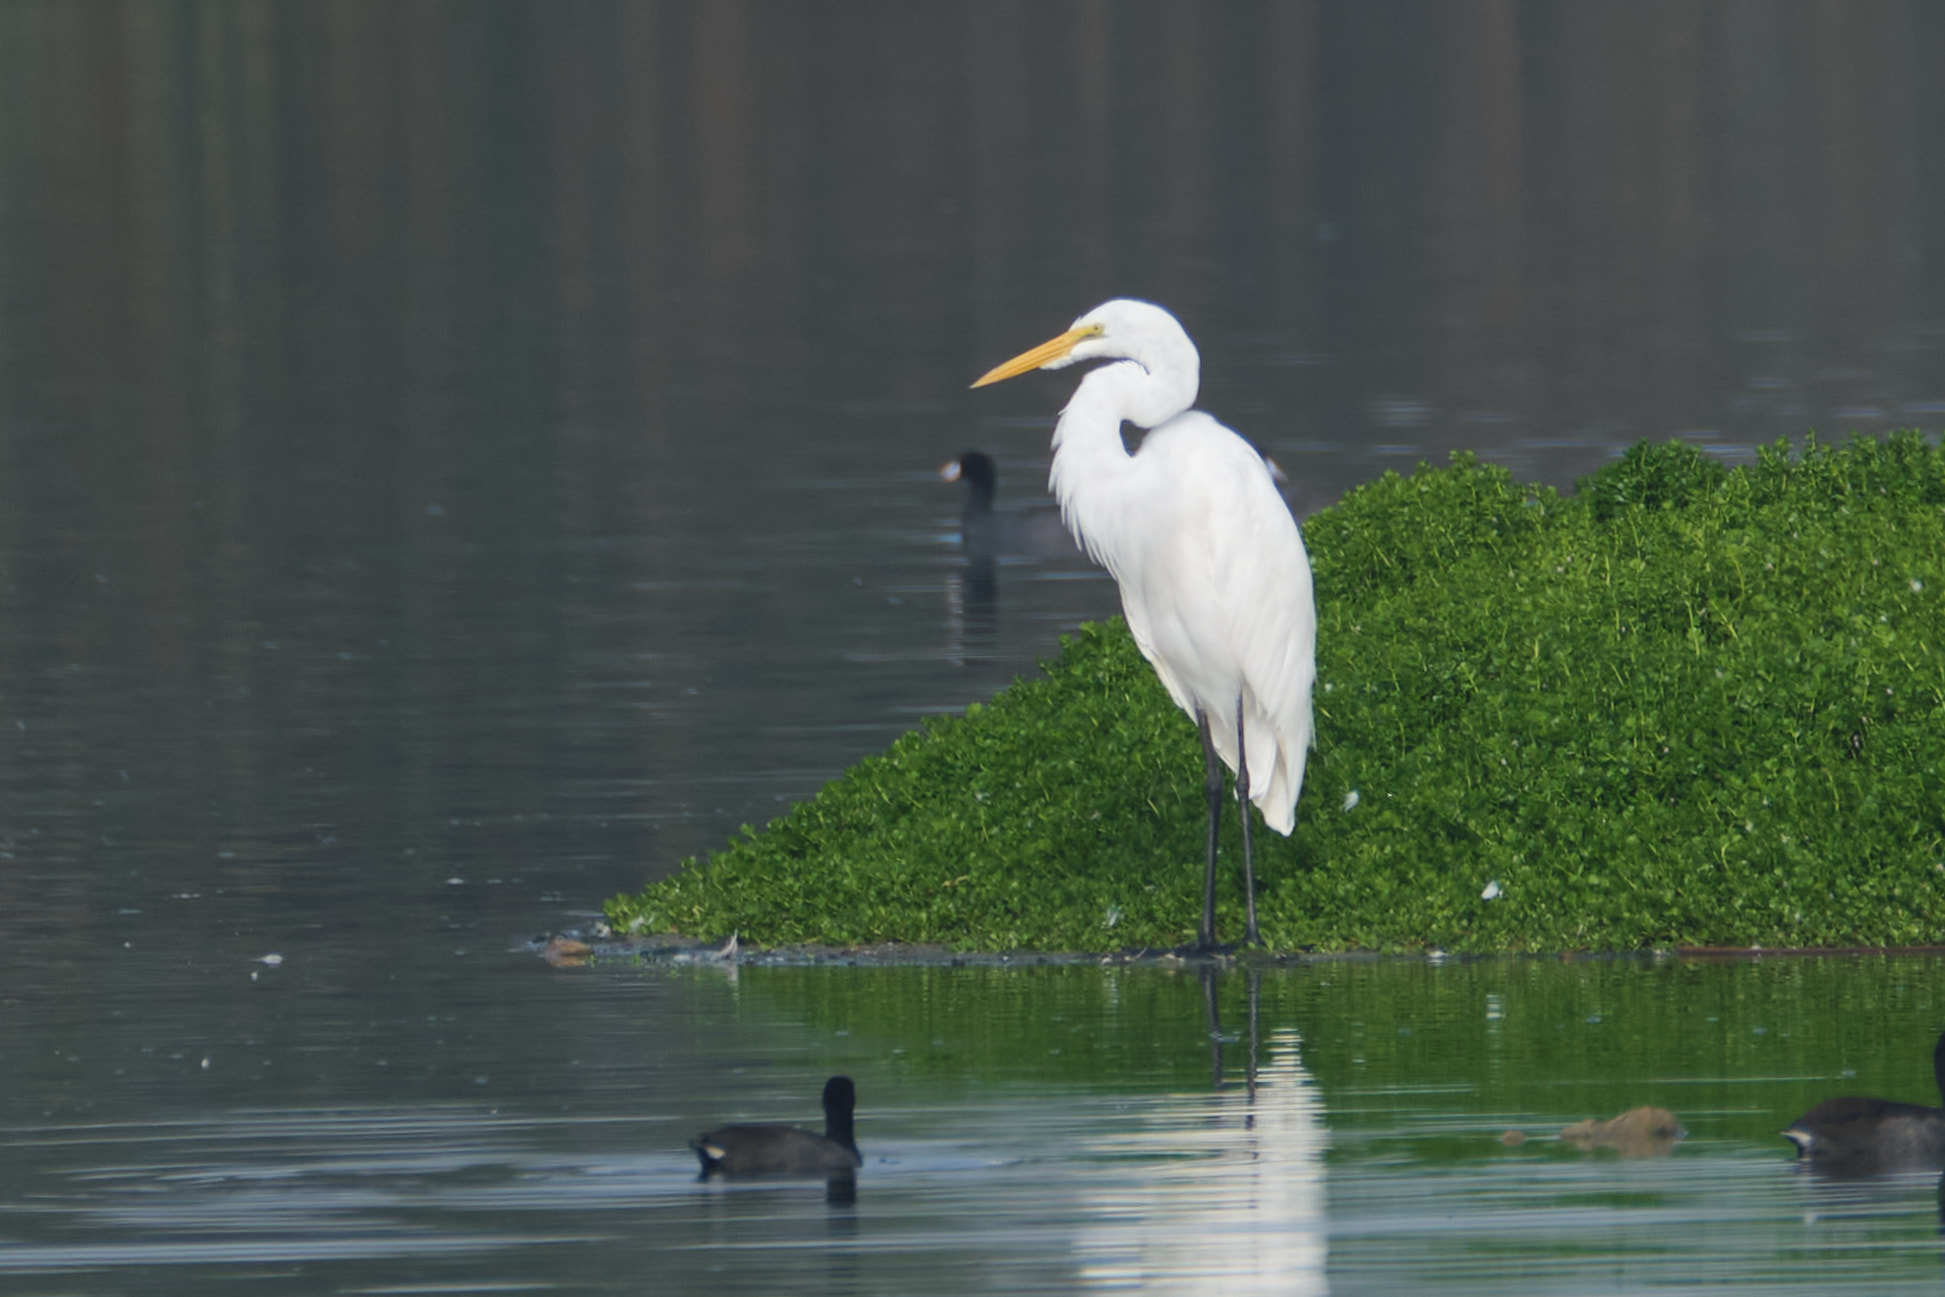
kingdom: Animalia
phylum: Chordata
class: Aves
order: Pelecaniformes
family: Ardeidae
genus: Ardea
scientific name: Ardea alba
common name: Great egret
